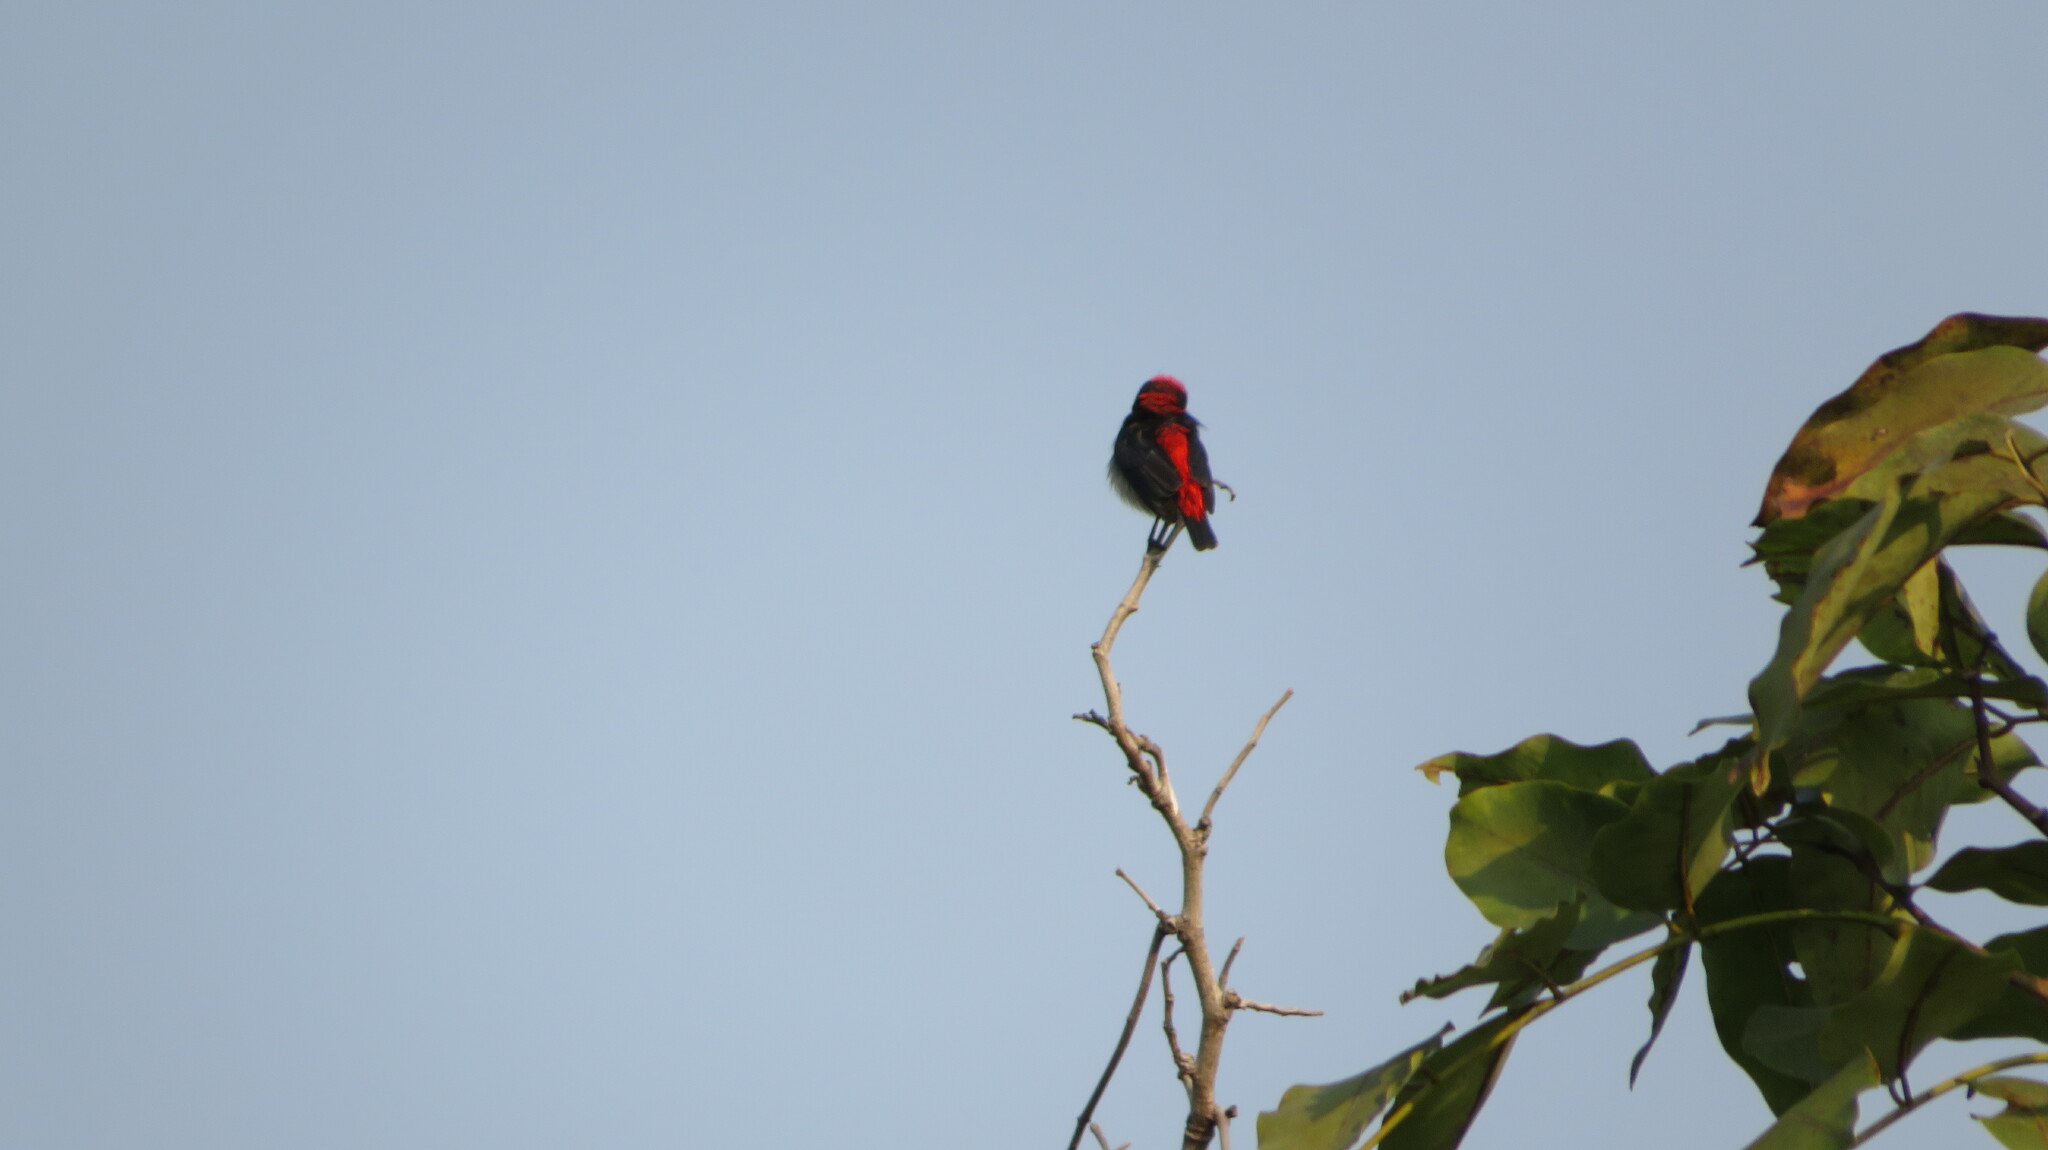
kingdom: Animalia
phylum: Chordata
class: Aves
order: Passeriformes
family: Dicaeidae
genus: Dicaeum
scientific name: Dicaeum cruentatum
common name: Scarlet-backed flowerpecker
